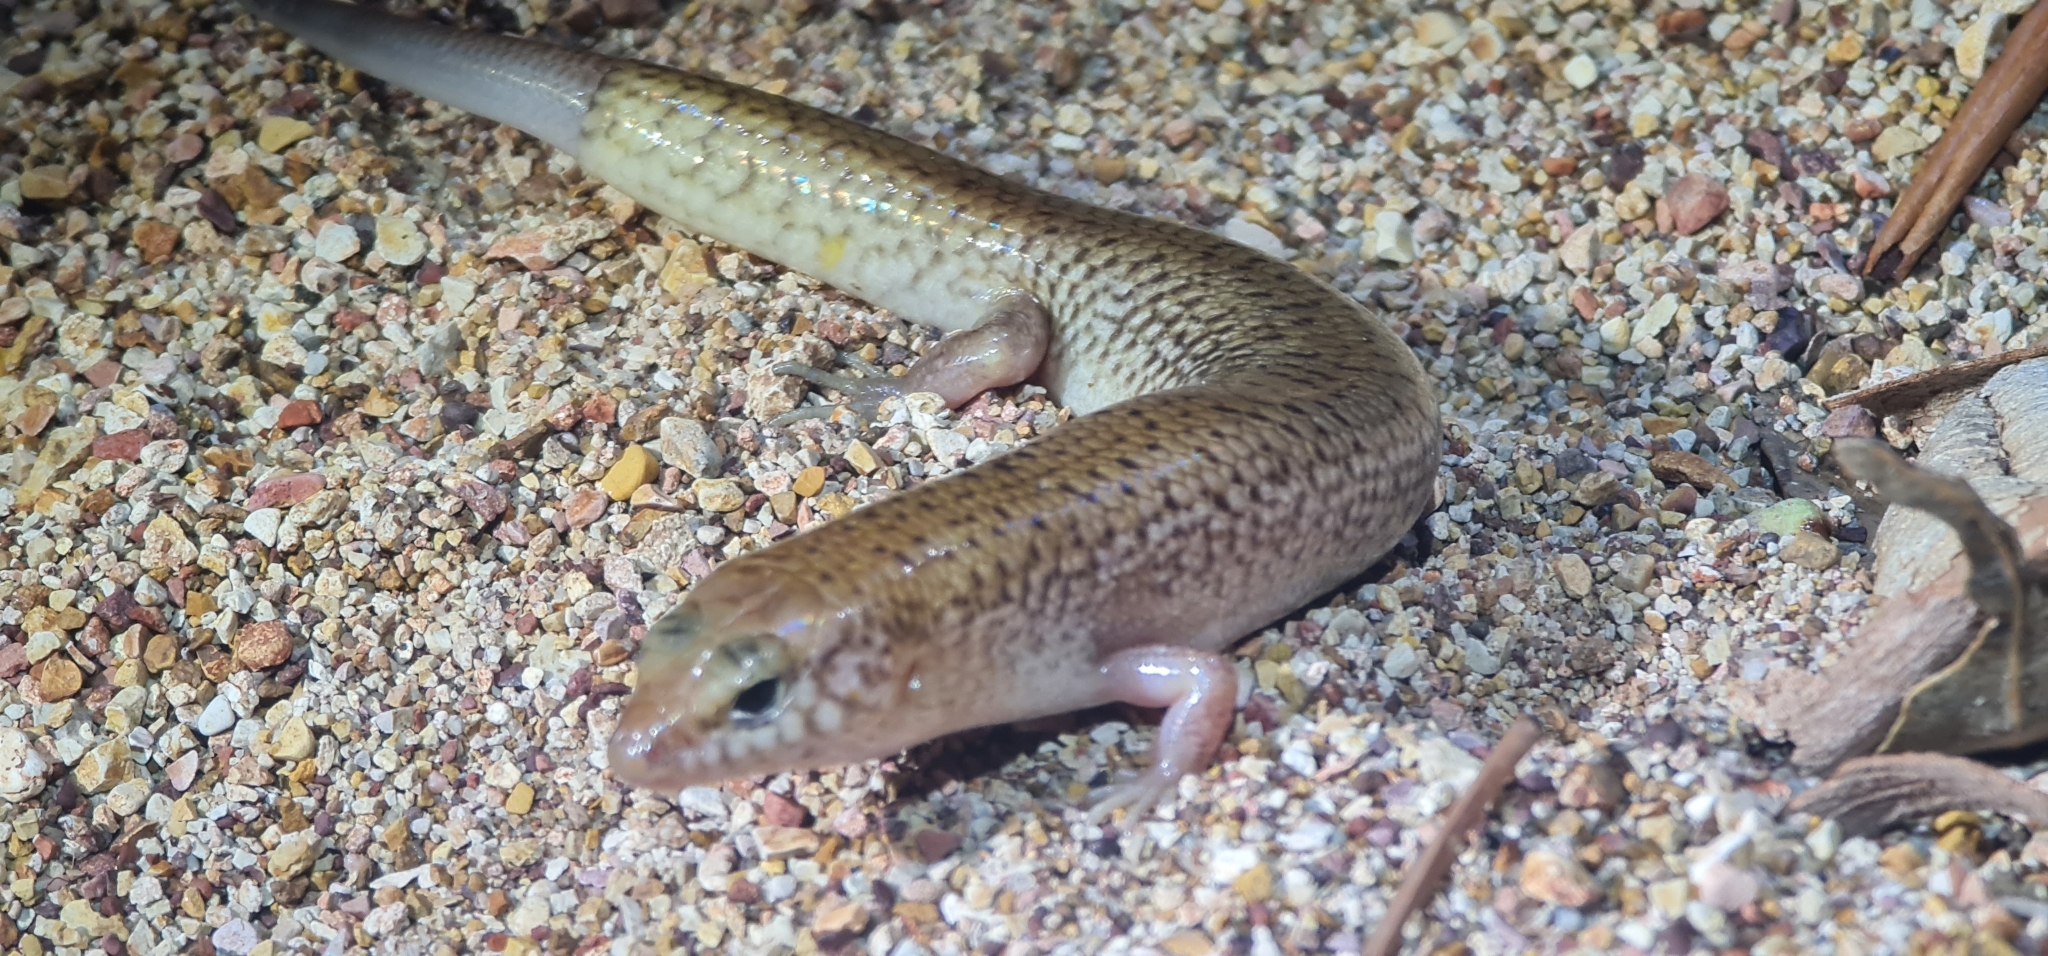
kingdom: Animalia
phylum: Chordata
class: Squamata
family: Scincidae
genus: Eremiascincus
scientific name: Eremiascincus isolepis
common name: Northern bar-lipped skink
